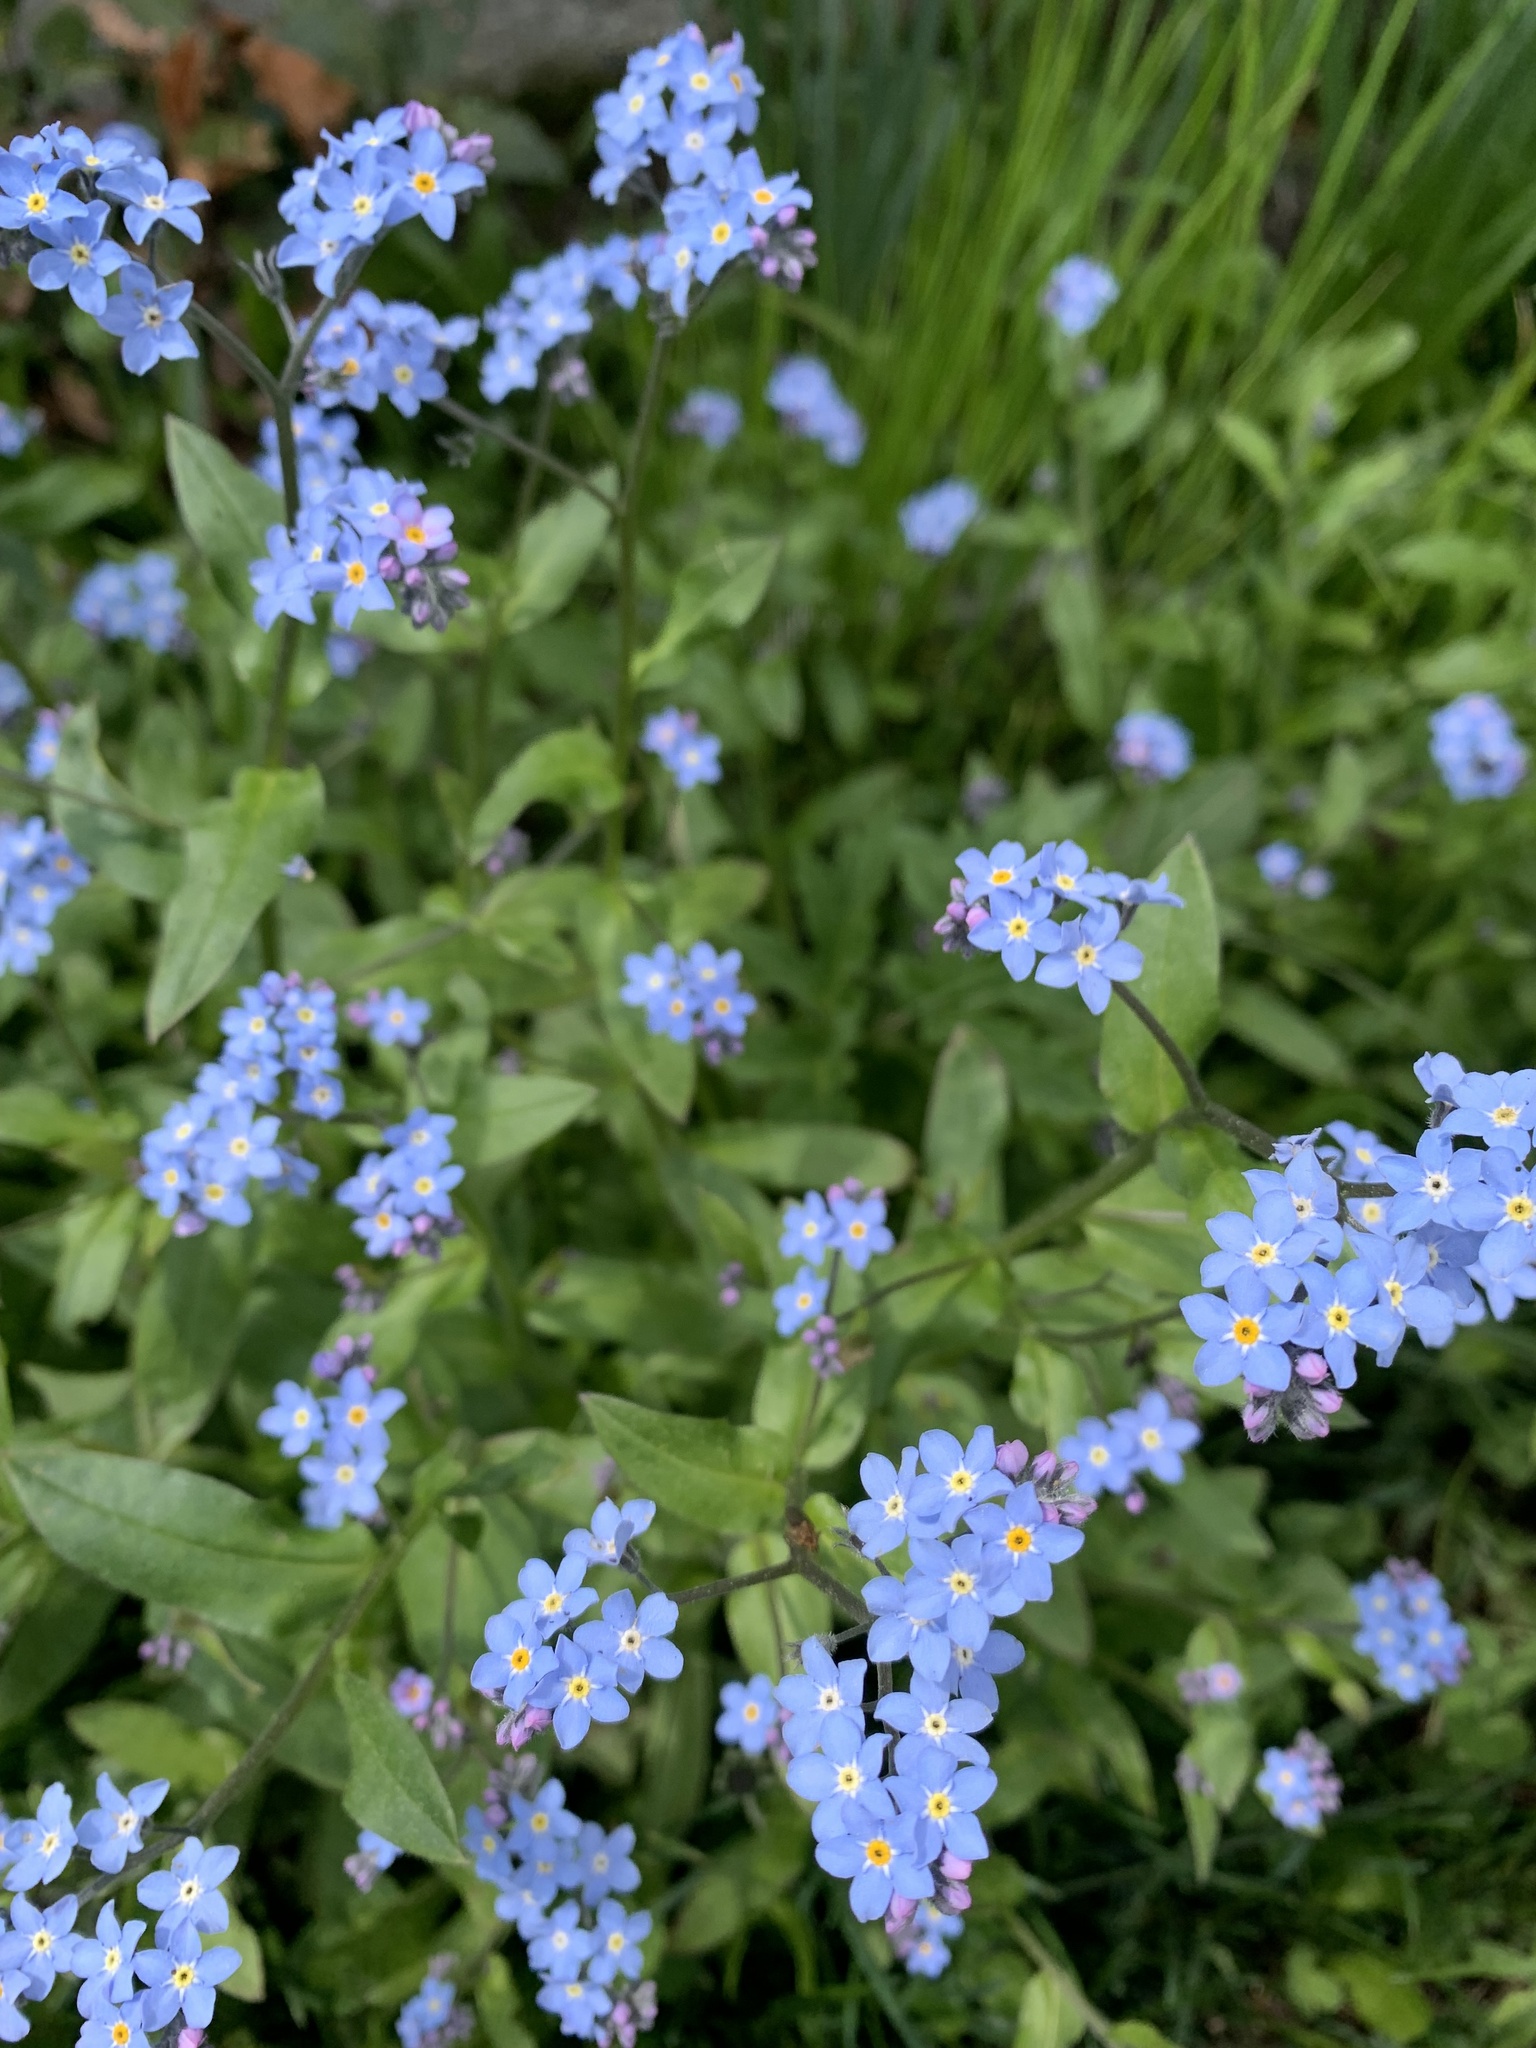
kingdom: Plantae
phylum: Tracheophyta
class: Magnoliopsida
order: Boraginales
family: Boraginaceae
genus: Myosotis
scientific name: Myosotis sylvatica
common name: Wood forget-me-not
